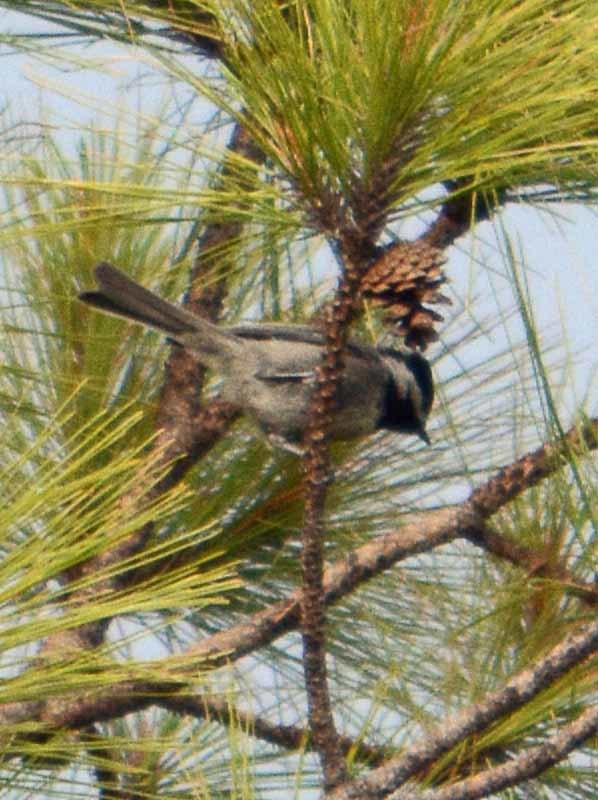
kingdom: Animalia
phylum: Chordata
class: Aves
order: Passeriformes
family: Paridae
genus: Poecile
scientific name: Poecile sclateri
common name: Mexican chickadee
